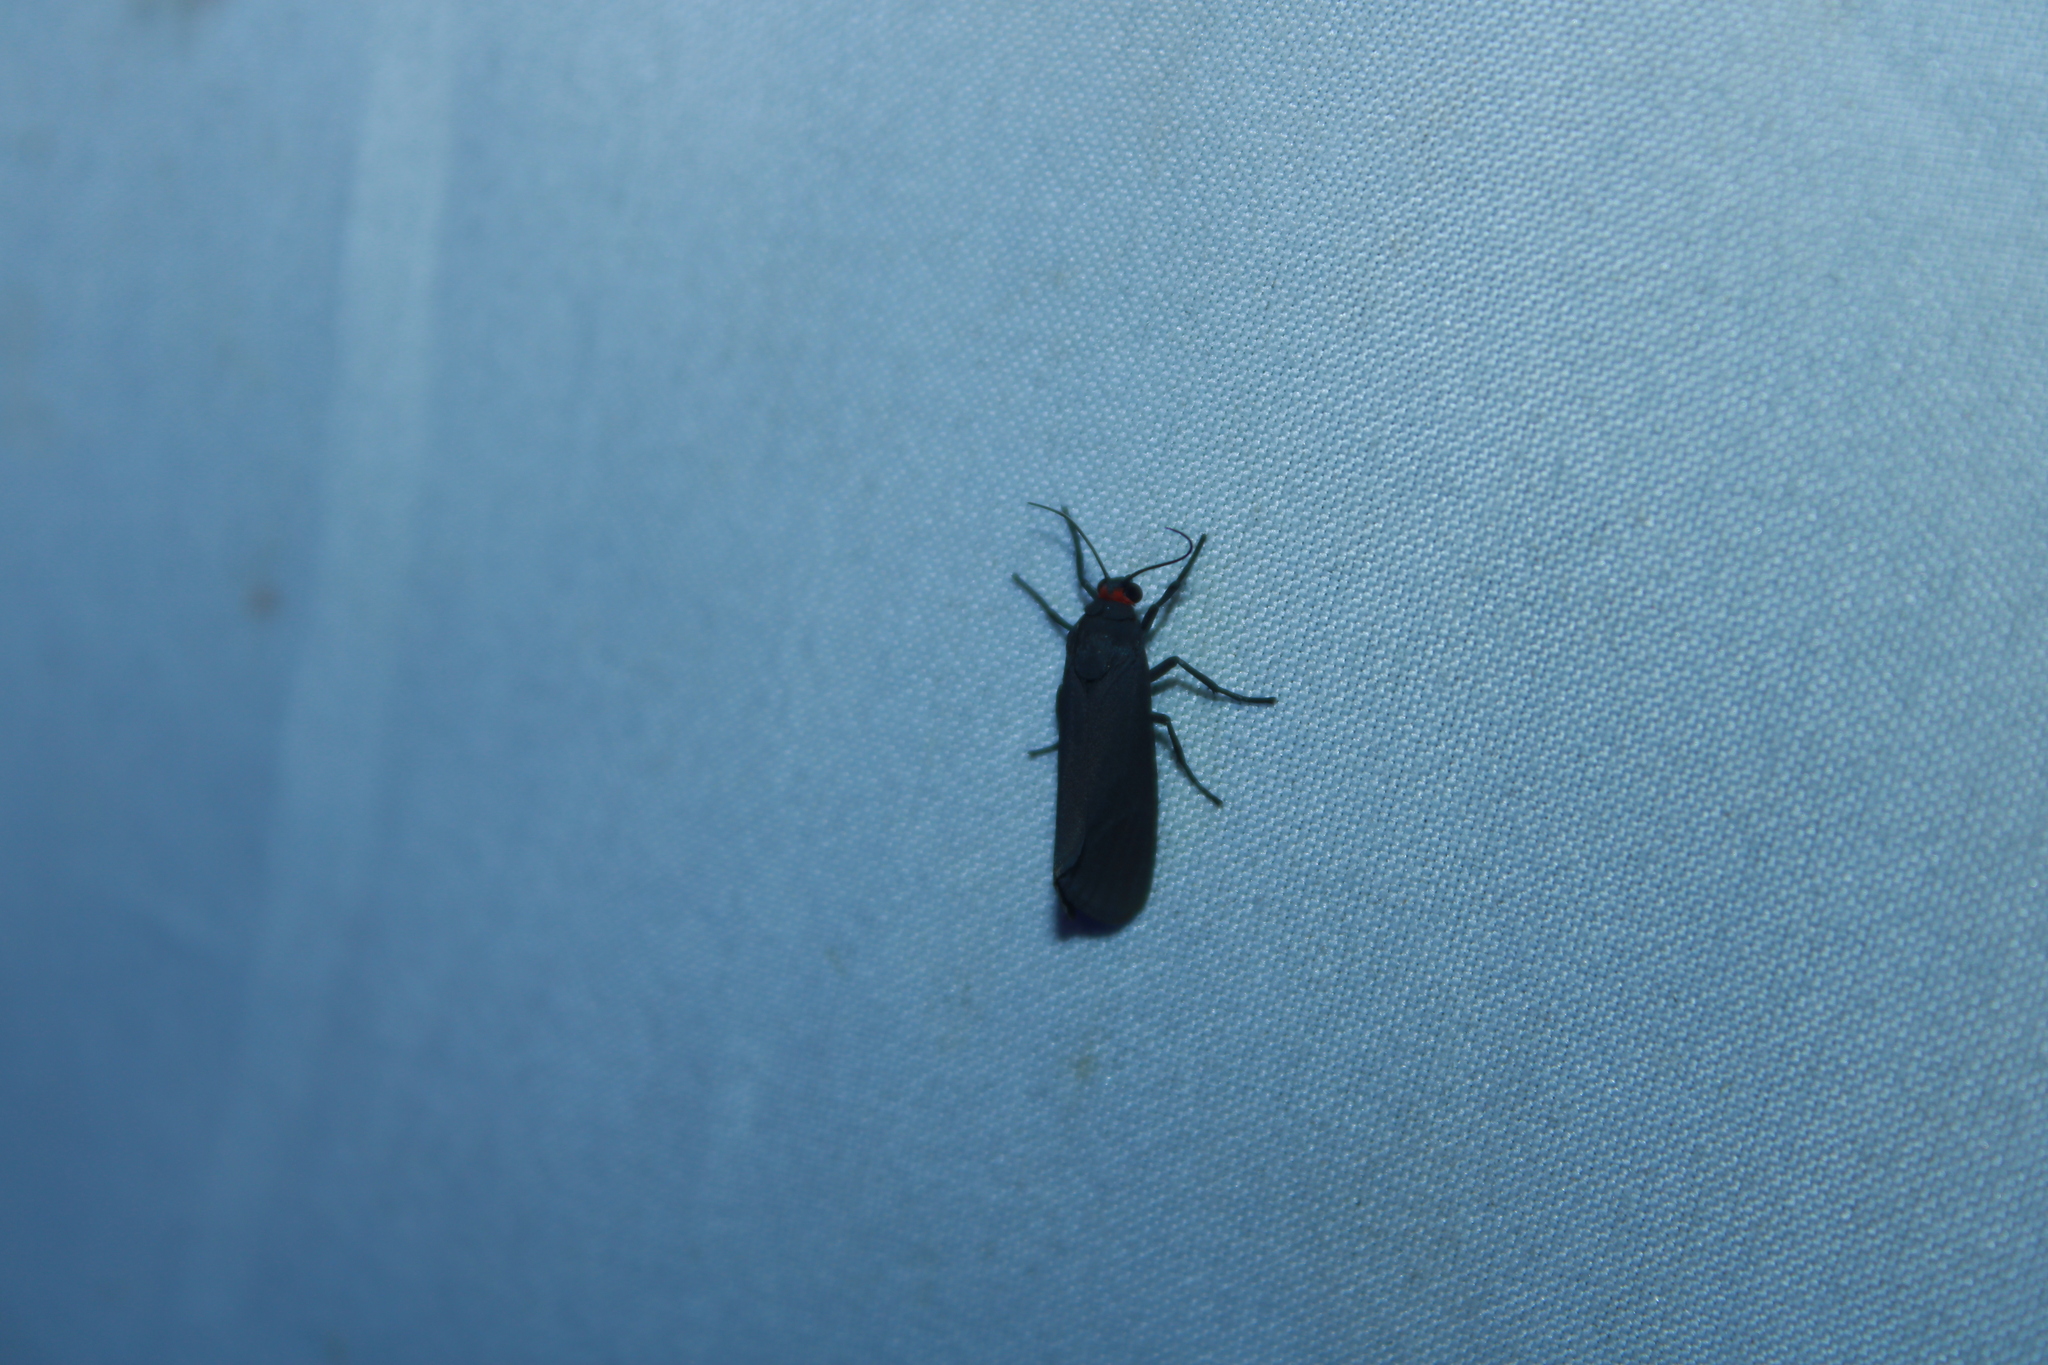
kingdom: Animalia
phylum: Arthropoda
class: Insecta
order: Lepidoptera
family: Erebidae
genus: Virbia
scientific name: Virbia laeta
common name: Joyful holomelina moth
